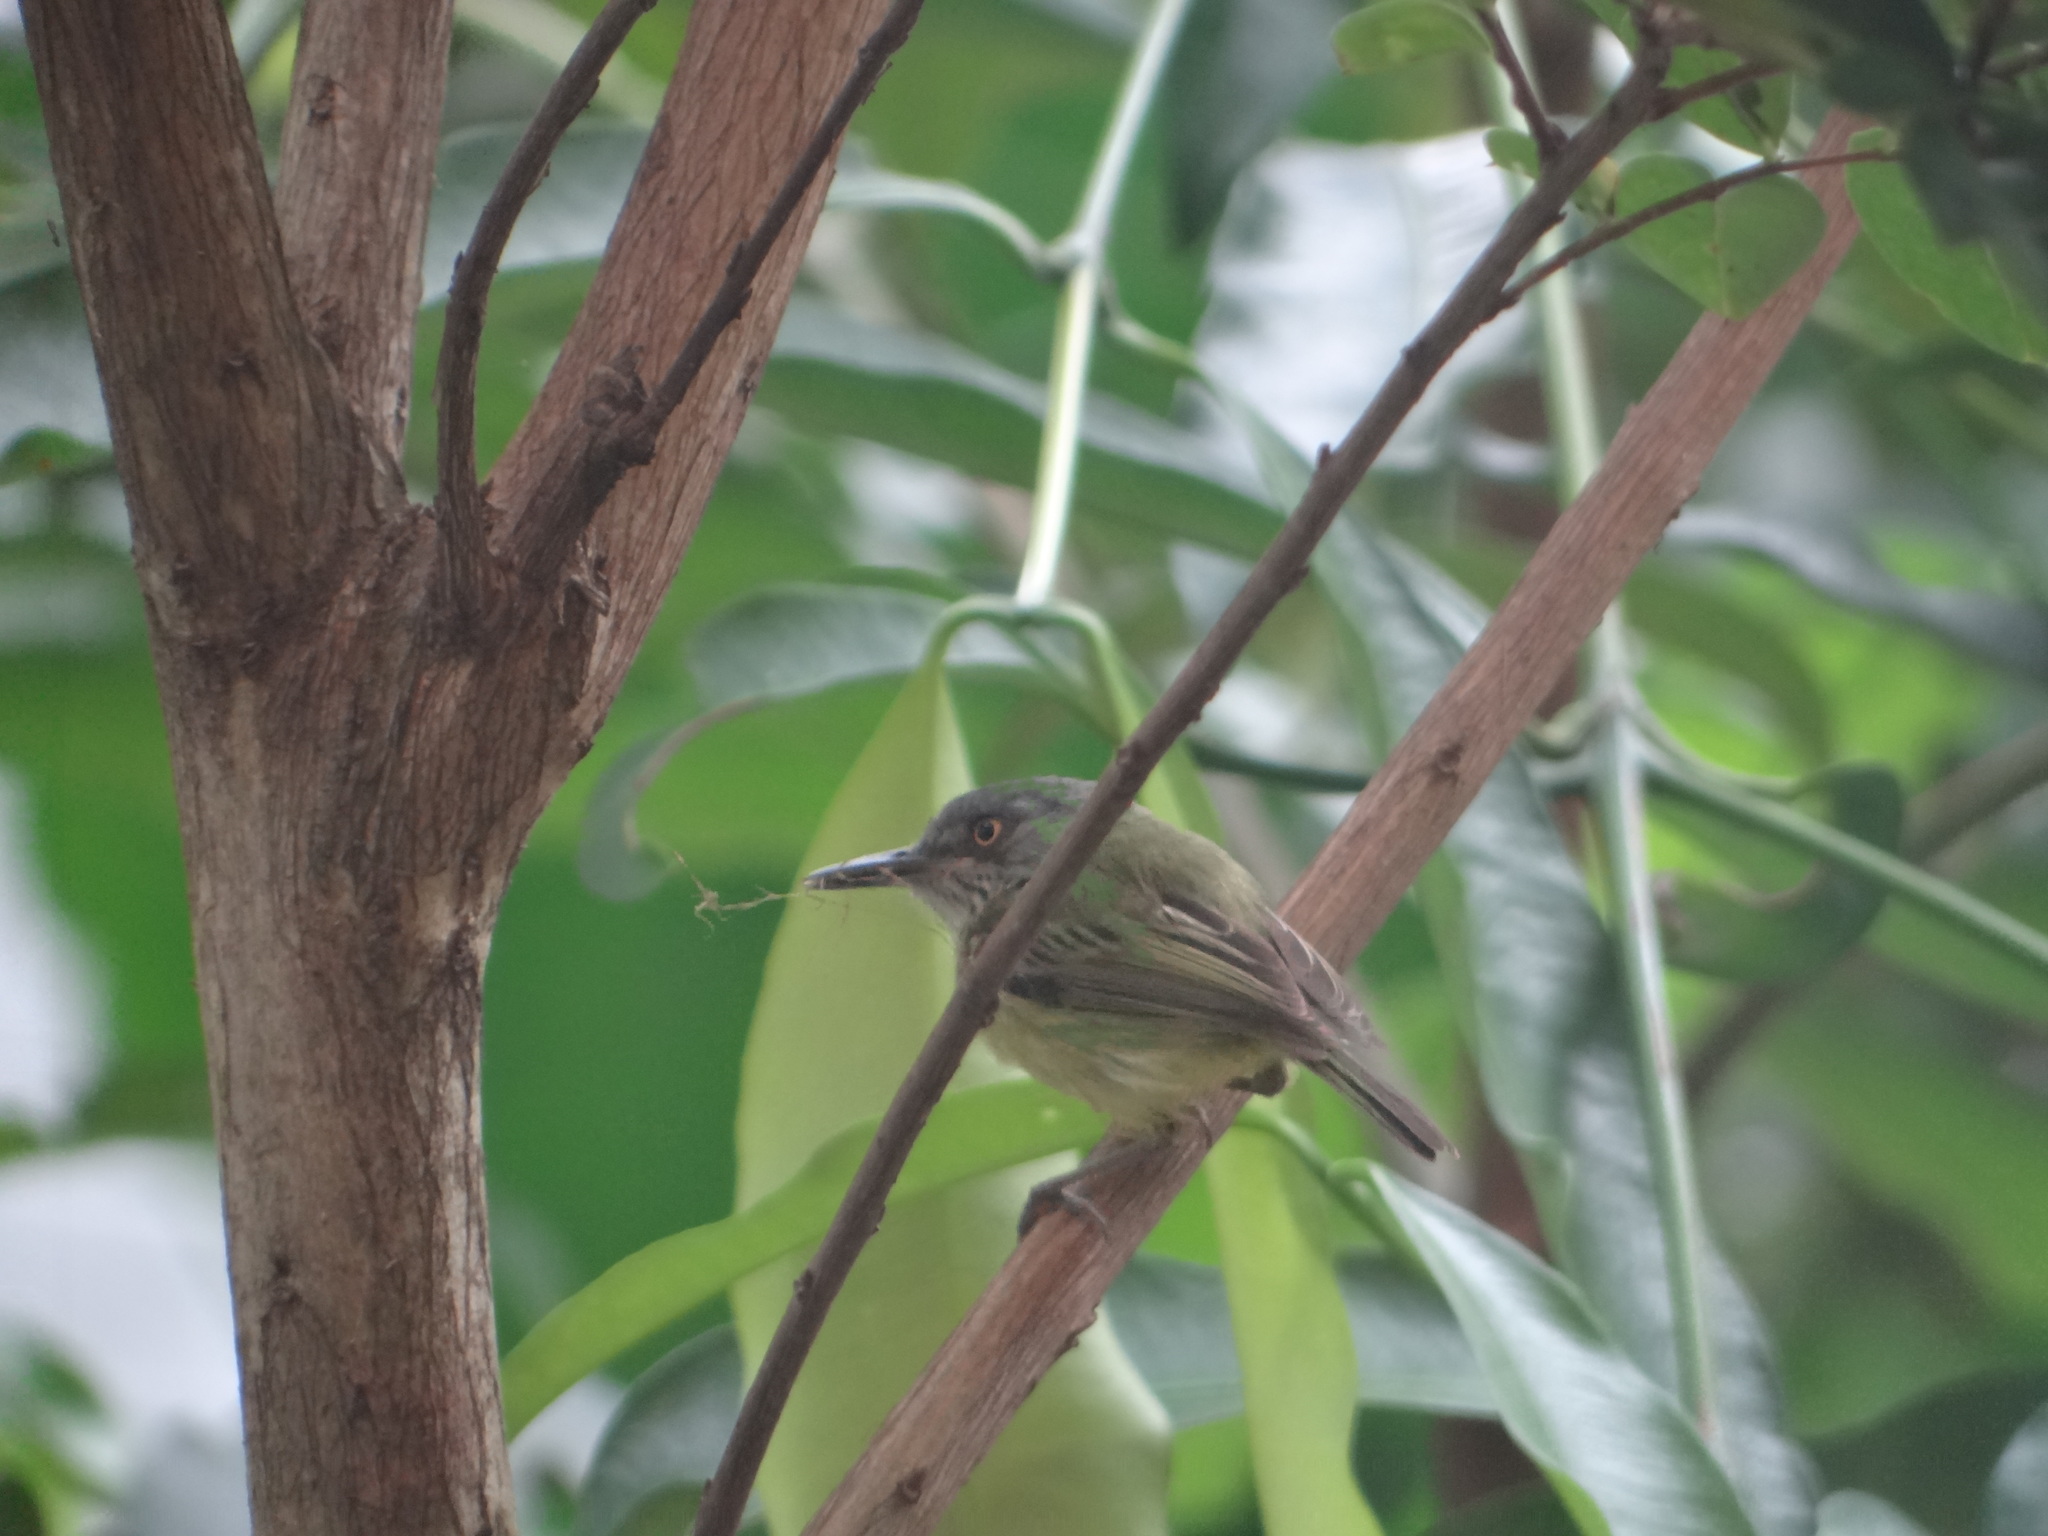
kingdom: Animalia
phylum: Chordata
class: Aves
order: Passeriformes
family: Tyrannidae
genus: Todirostrum
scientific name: Todirostrum maculatum
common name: Spotted tody-flycatcher
